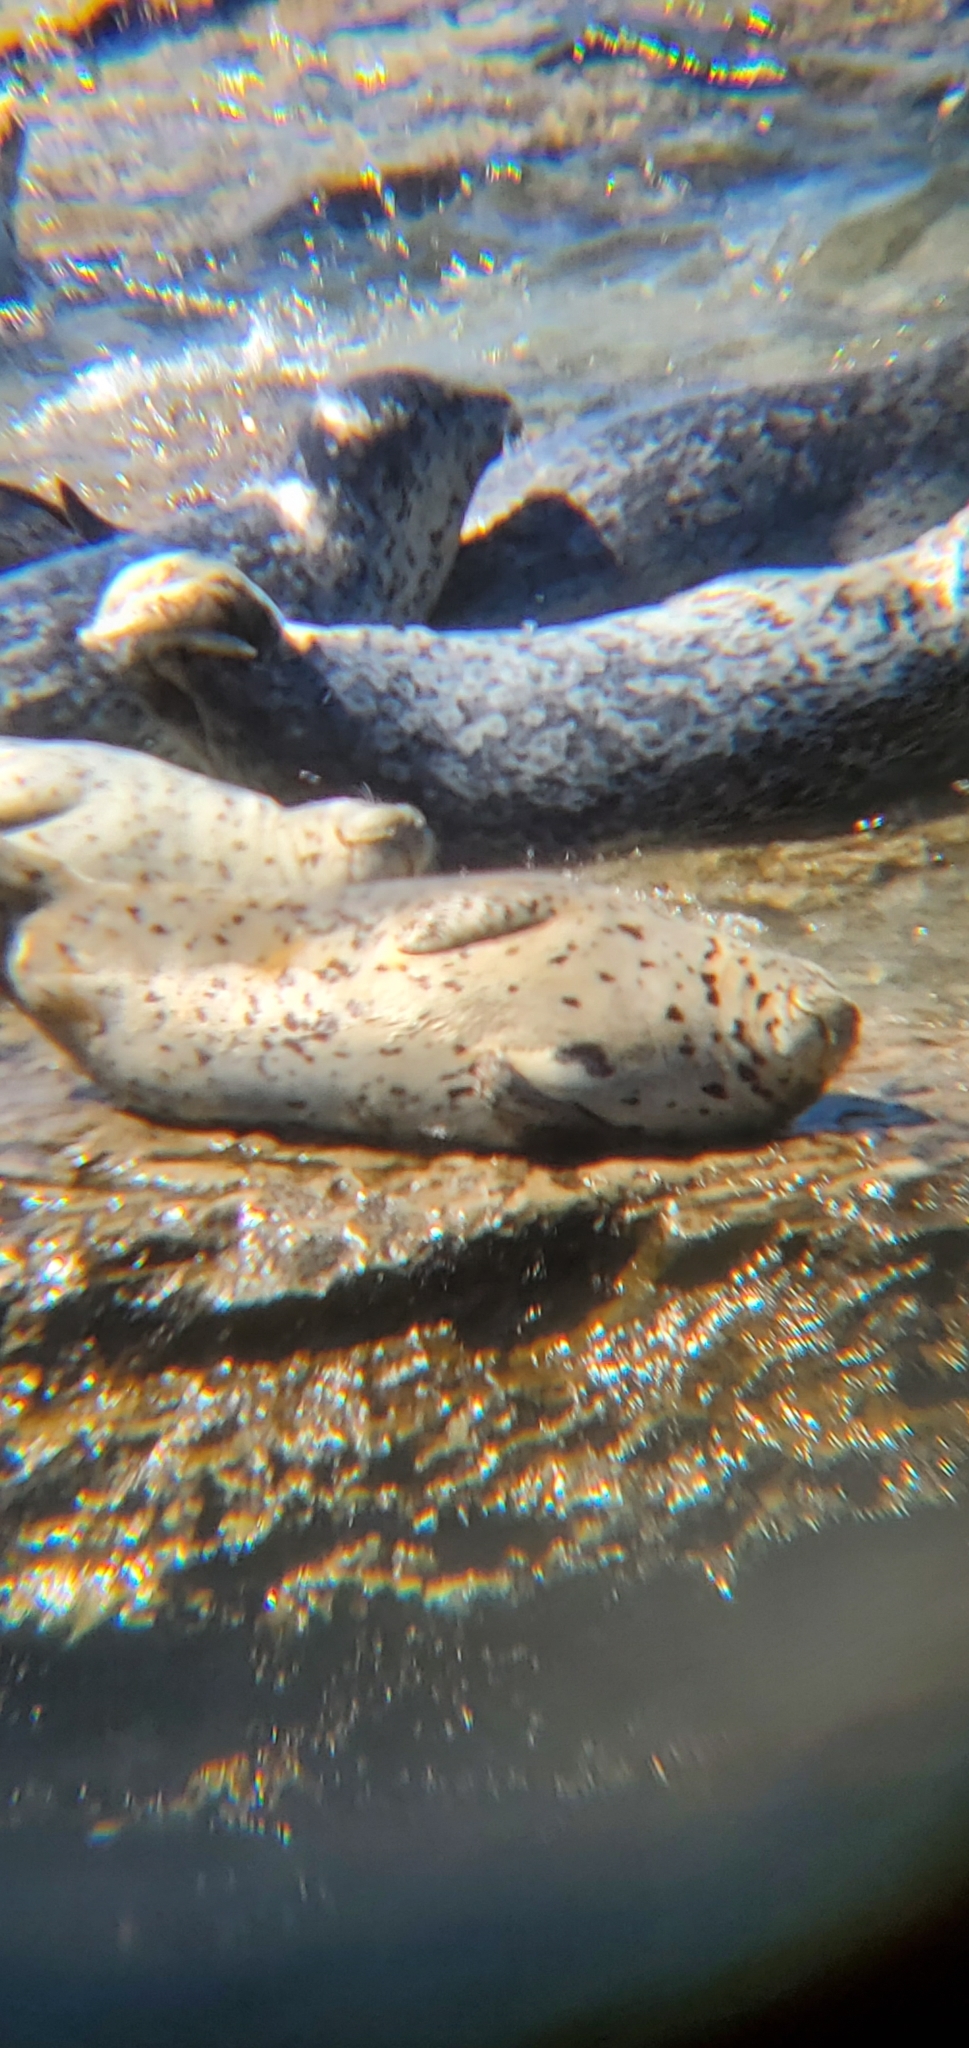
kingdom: Animalia
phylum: Chordata
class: Mammalia
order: Carnivora
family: Phocidae
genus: Phoca
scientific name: Phoca vitulina
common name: Harbor seal
